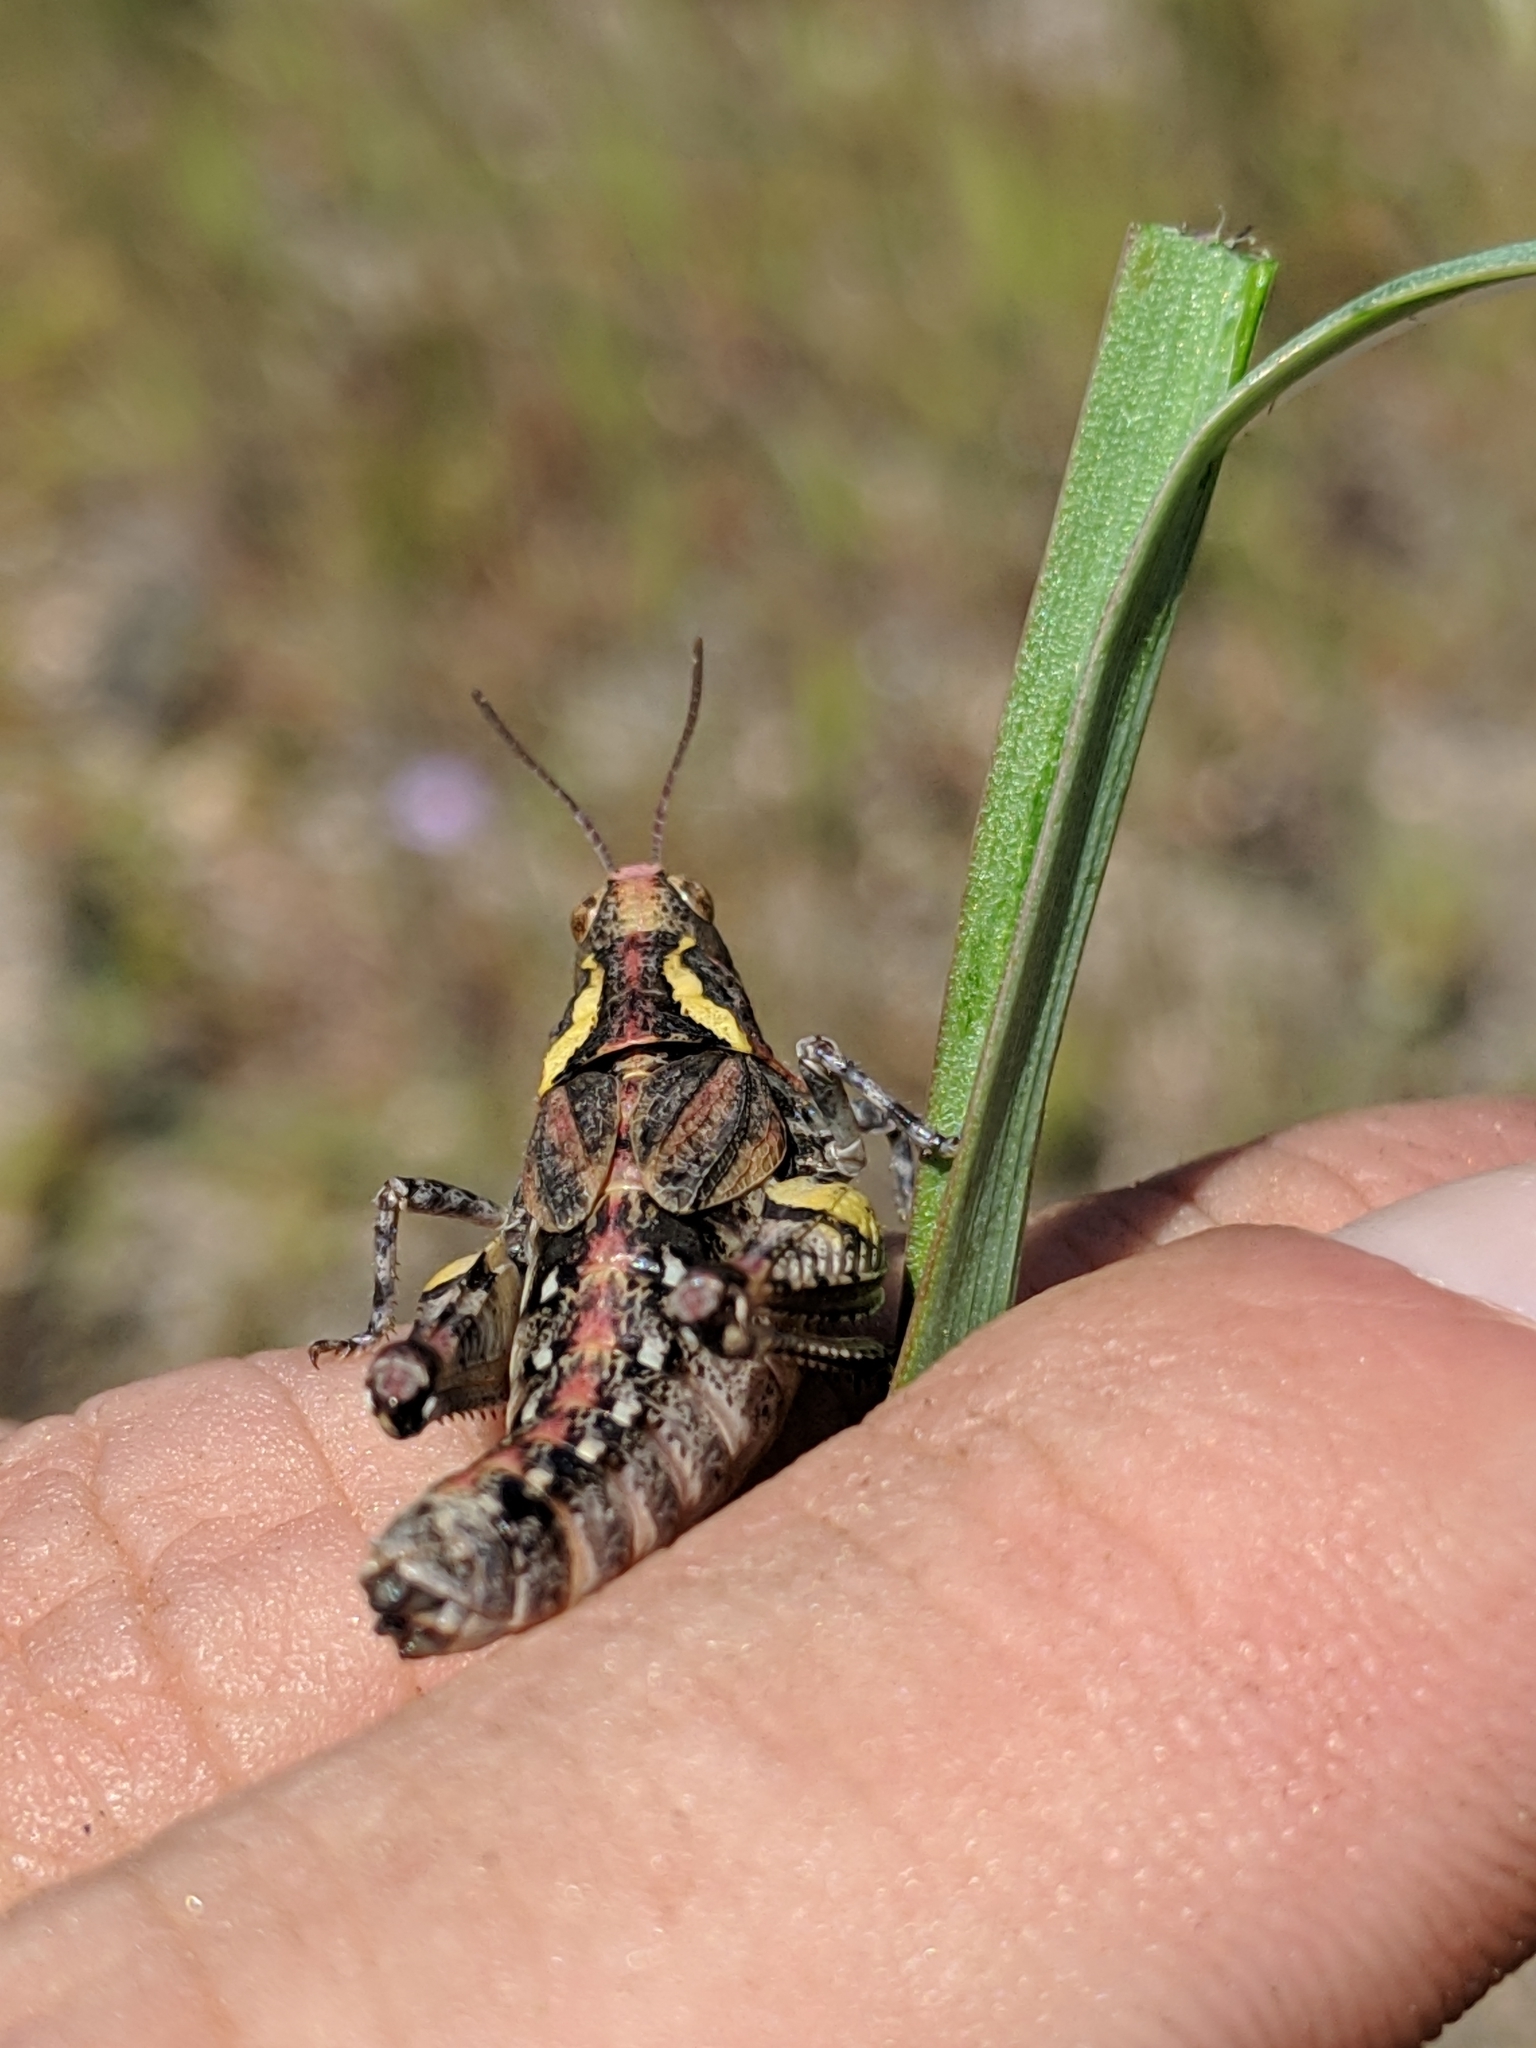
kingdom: Animalia
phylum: Arthropoda
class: Insecta
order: Orthoptera
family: Acrididae
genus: Esselenia
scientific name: Esselenia vanduzeei
